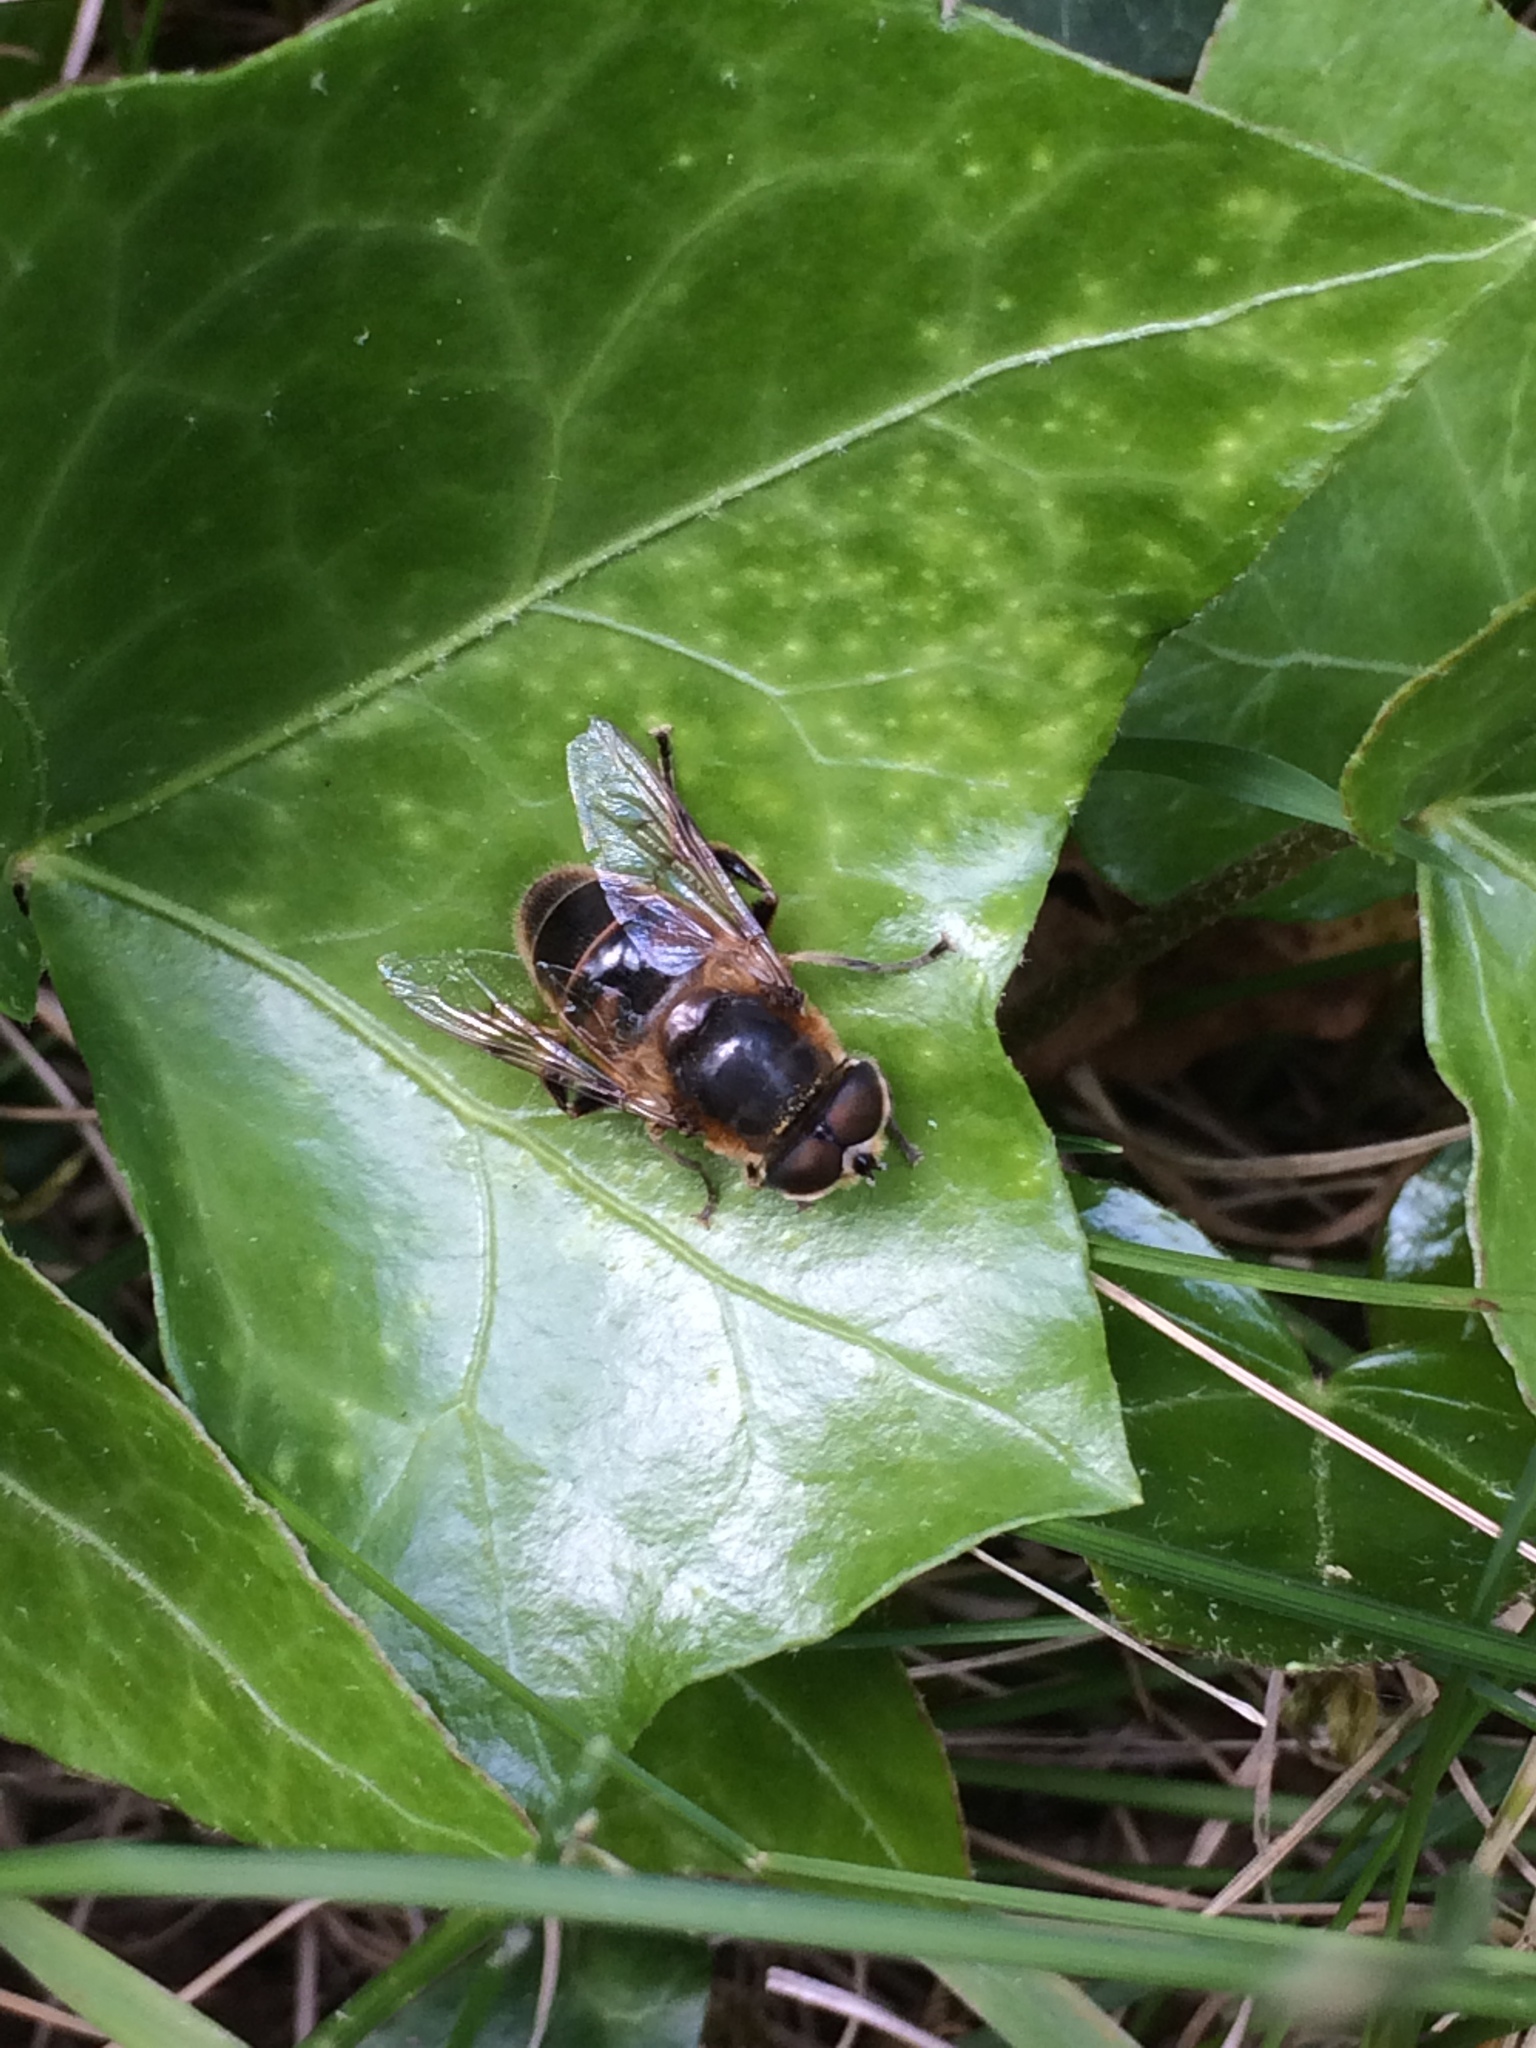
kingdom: Animalia
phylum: Arthropoda
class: Insecta
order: Diptera
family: Syrphidae
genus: Eristalis
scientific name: Eristalis tenax
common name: Drone fly
